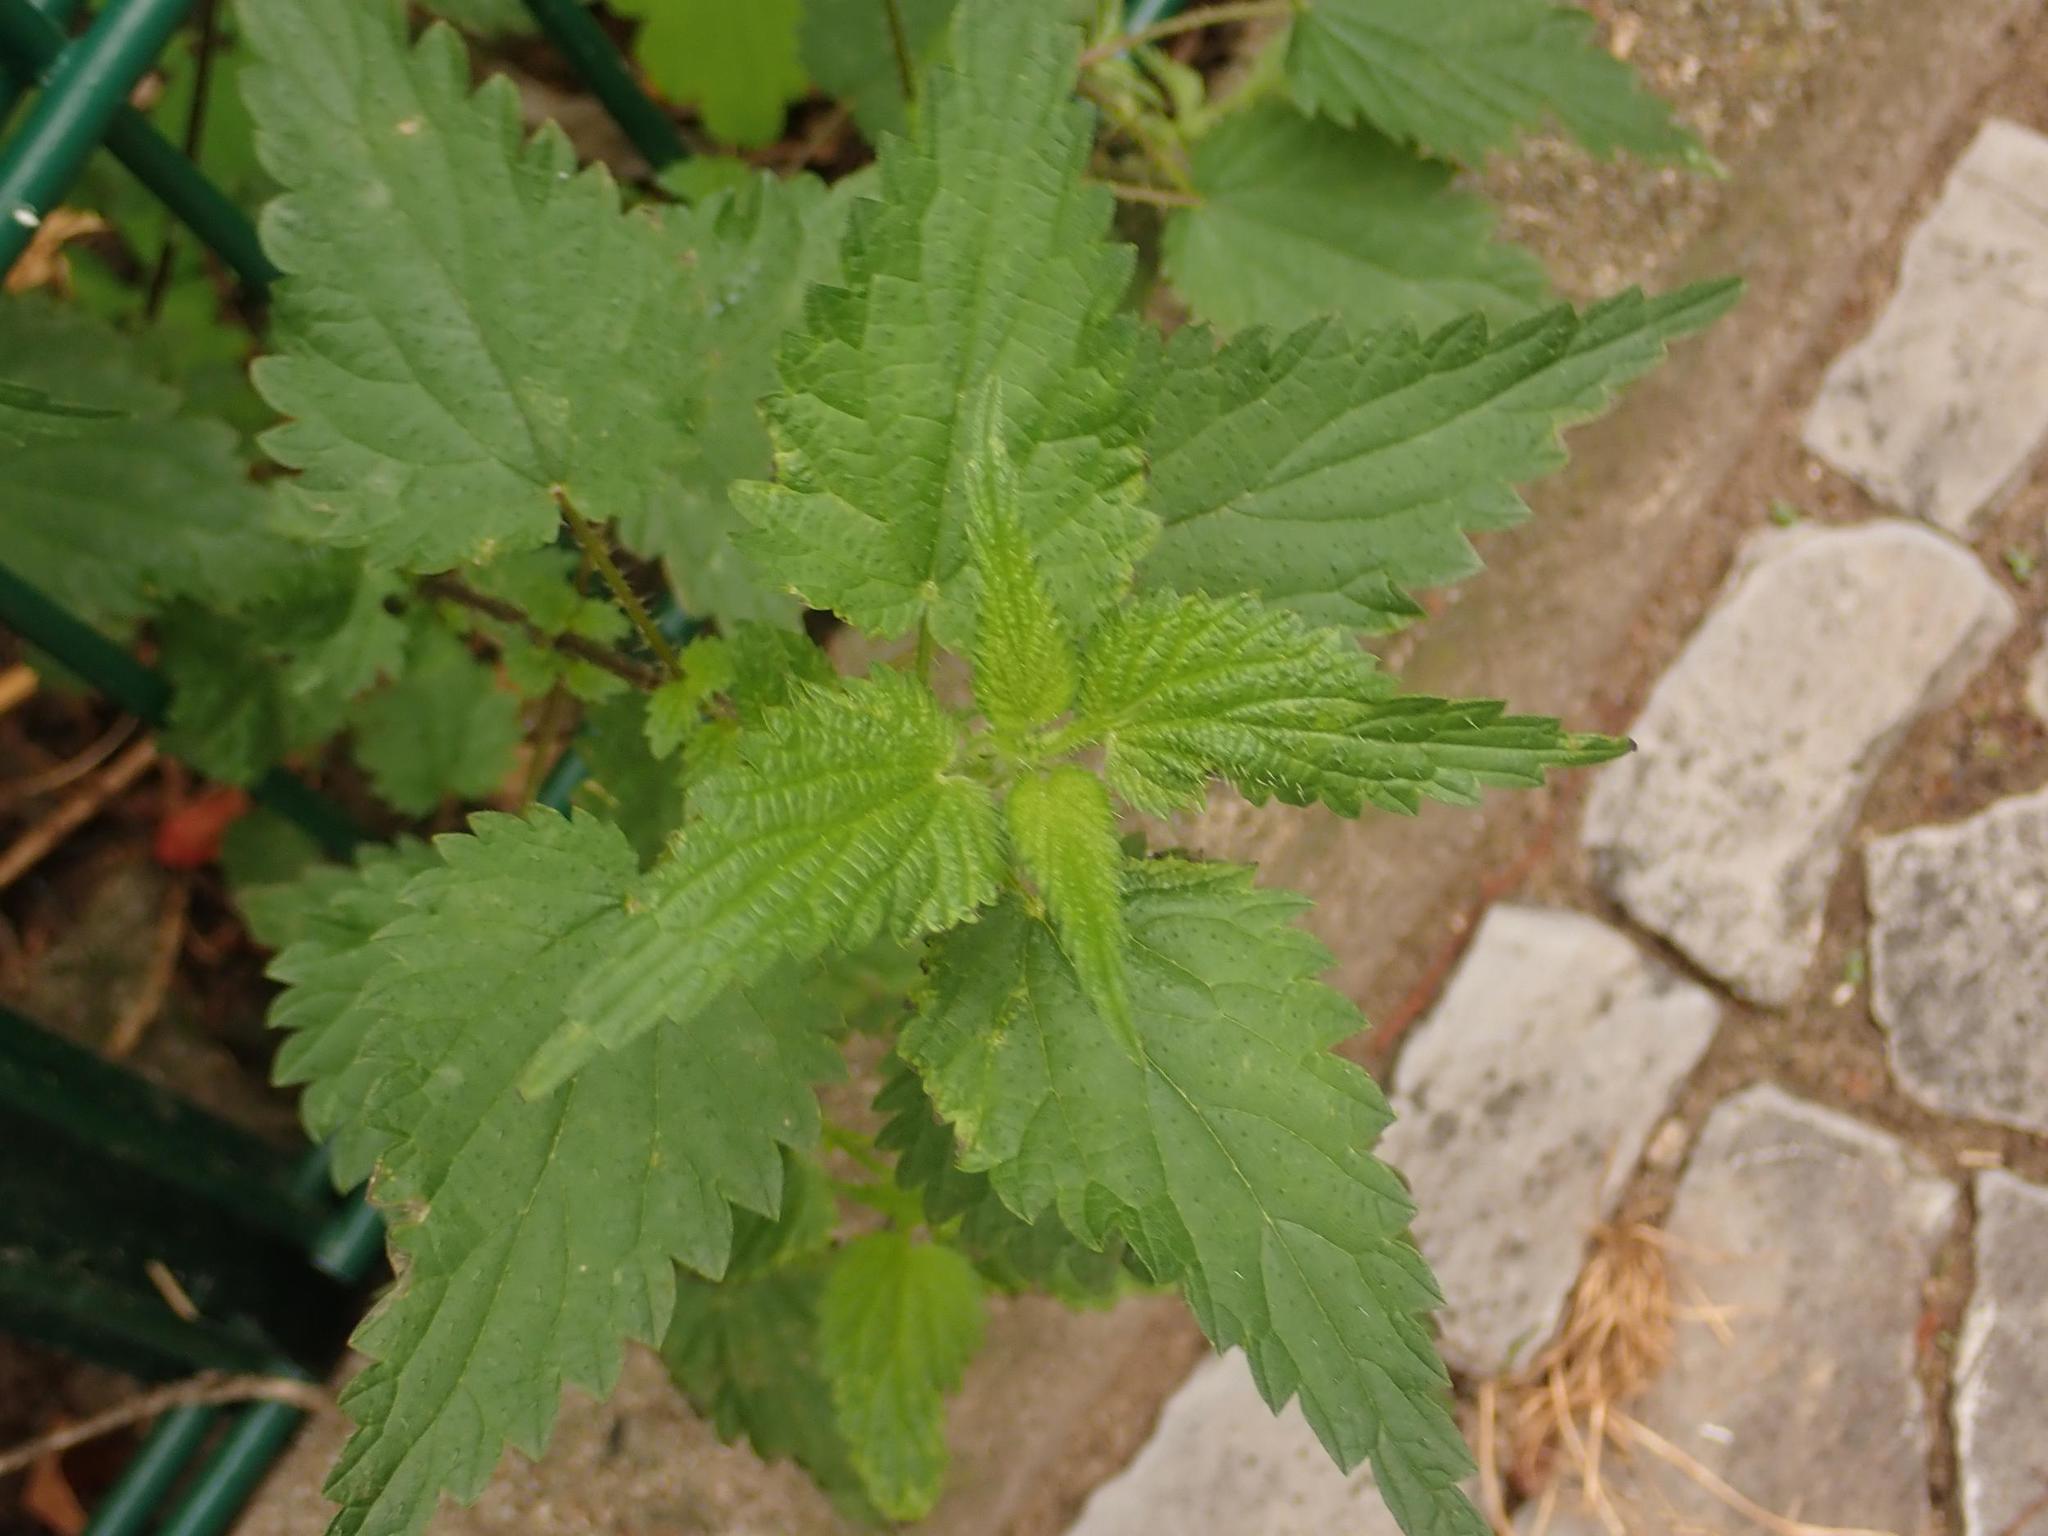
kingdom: Plantae
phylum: Tracheophyta
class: Magnoliopsida
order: Rosales
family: Urticaceae
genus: Urtica
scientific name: Urtica dioica
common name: Common nettle
